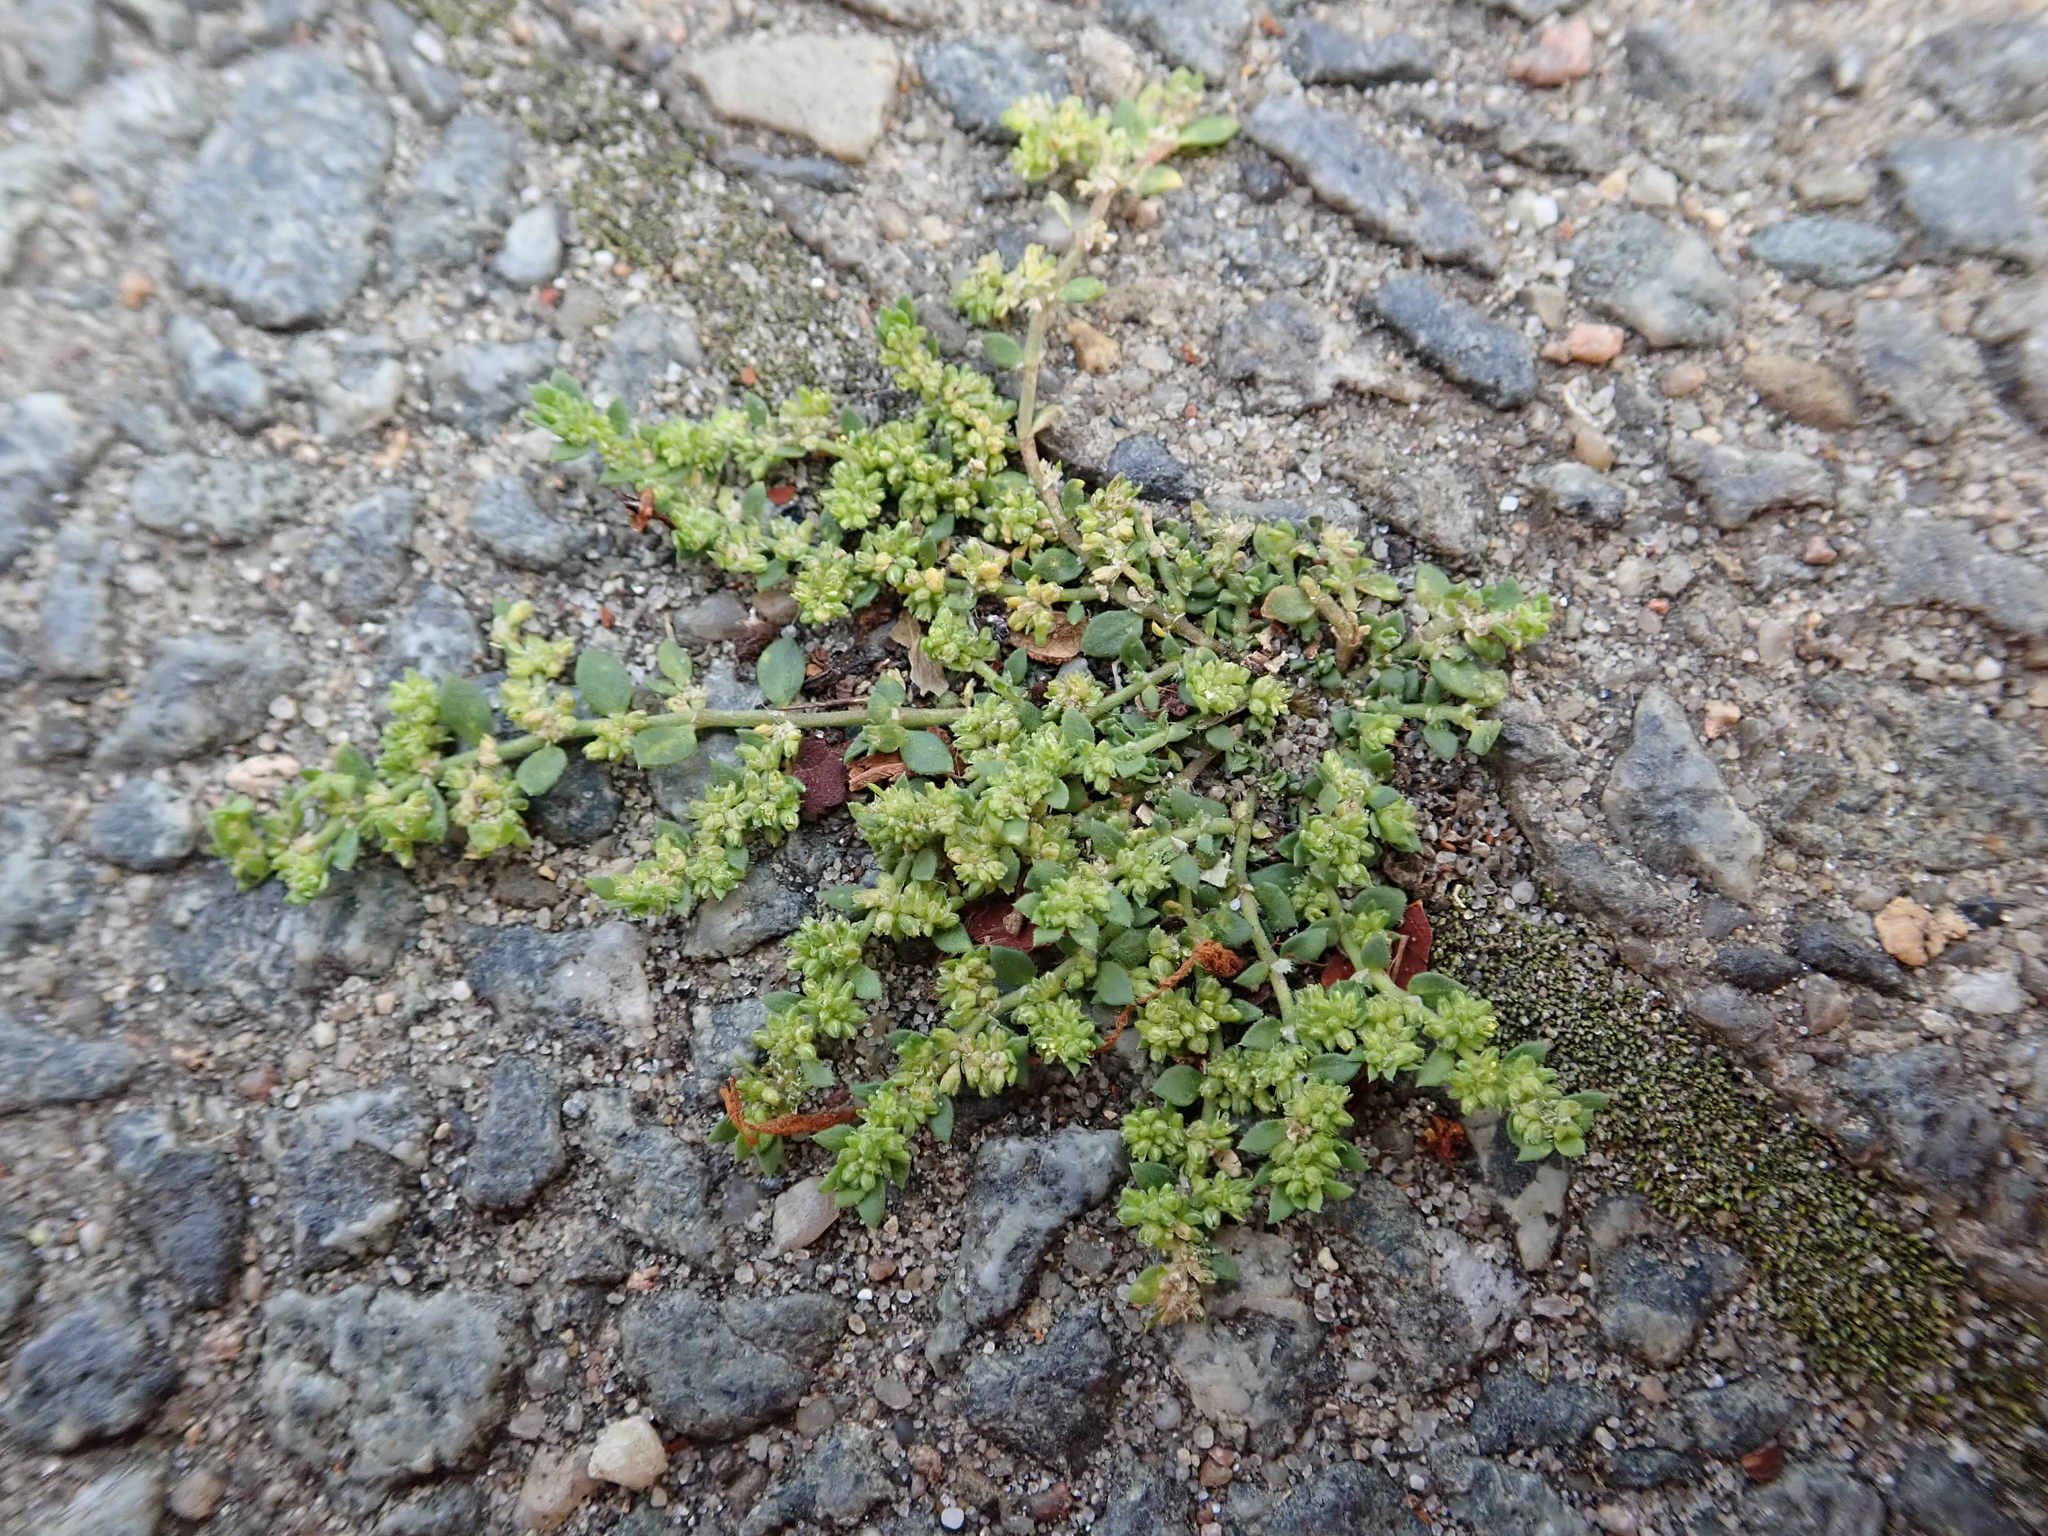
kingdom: Plantae
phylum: Tracheophyta
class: Magnoliopsida
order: Caryophyllales
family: Caryophyllaceae
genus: Herniaria
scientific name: Herniaria glabra
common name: Smooth rupturewort
